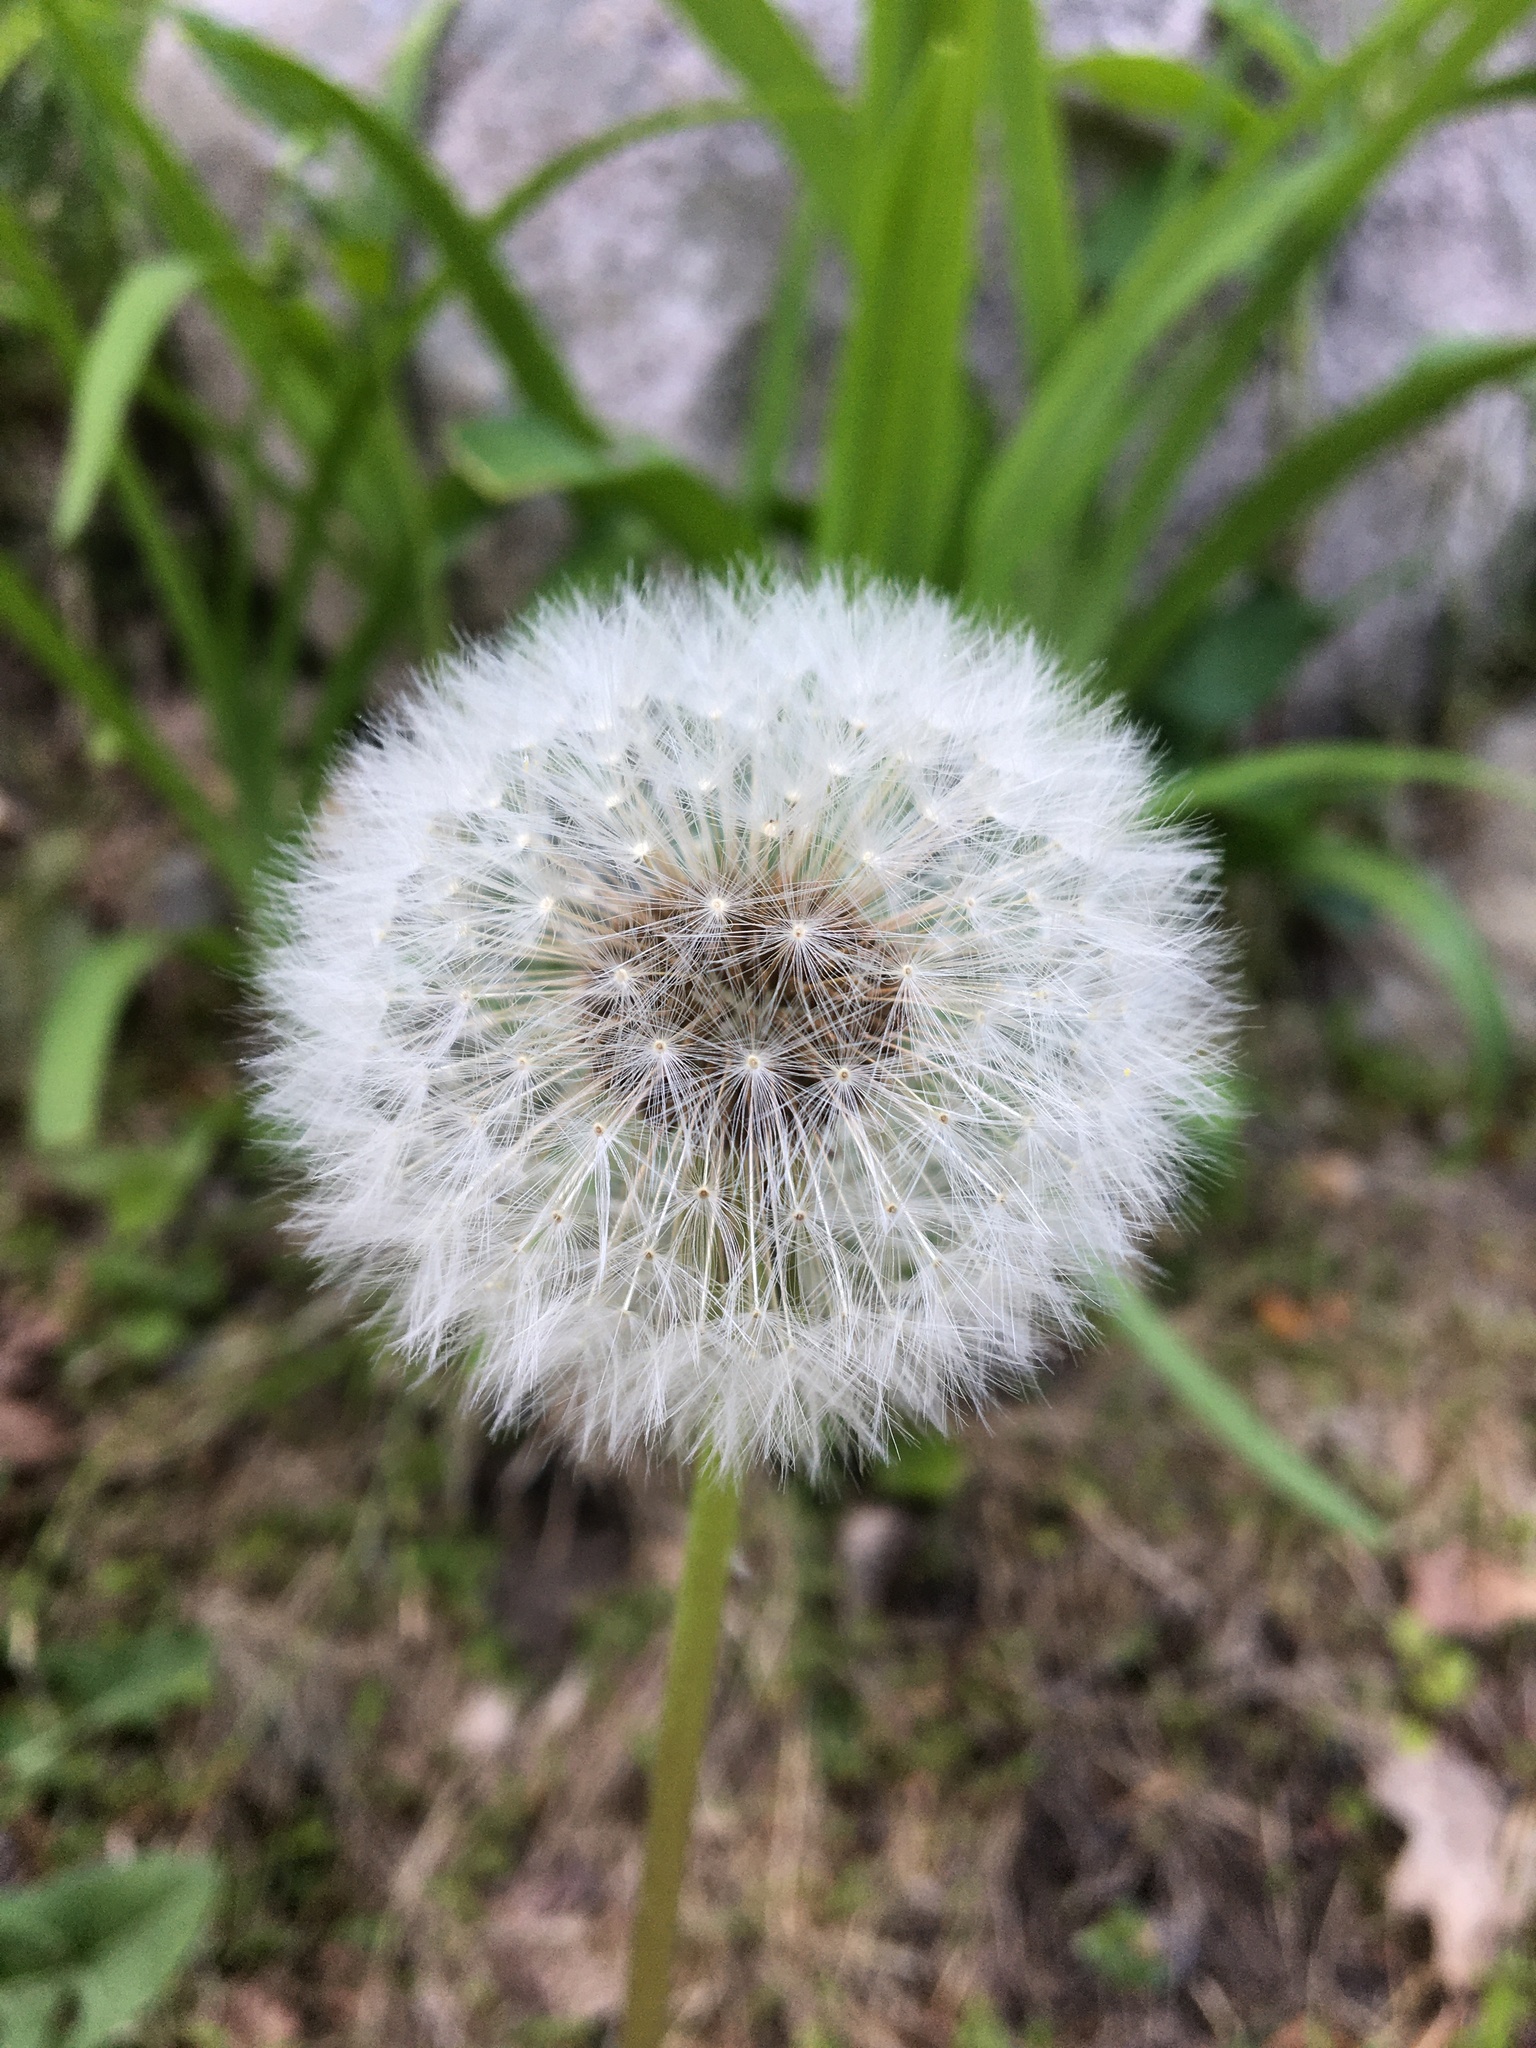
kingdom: Plantae
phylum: Tracheophyta
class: Magnoliopsida
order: Asterales
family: Asteraceae
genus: Taraxacum
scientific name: Taraxacum officinale
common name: Common dandelion
